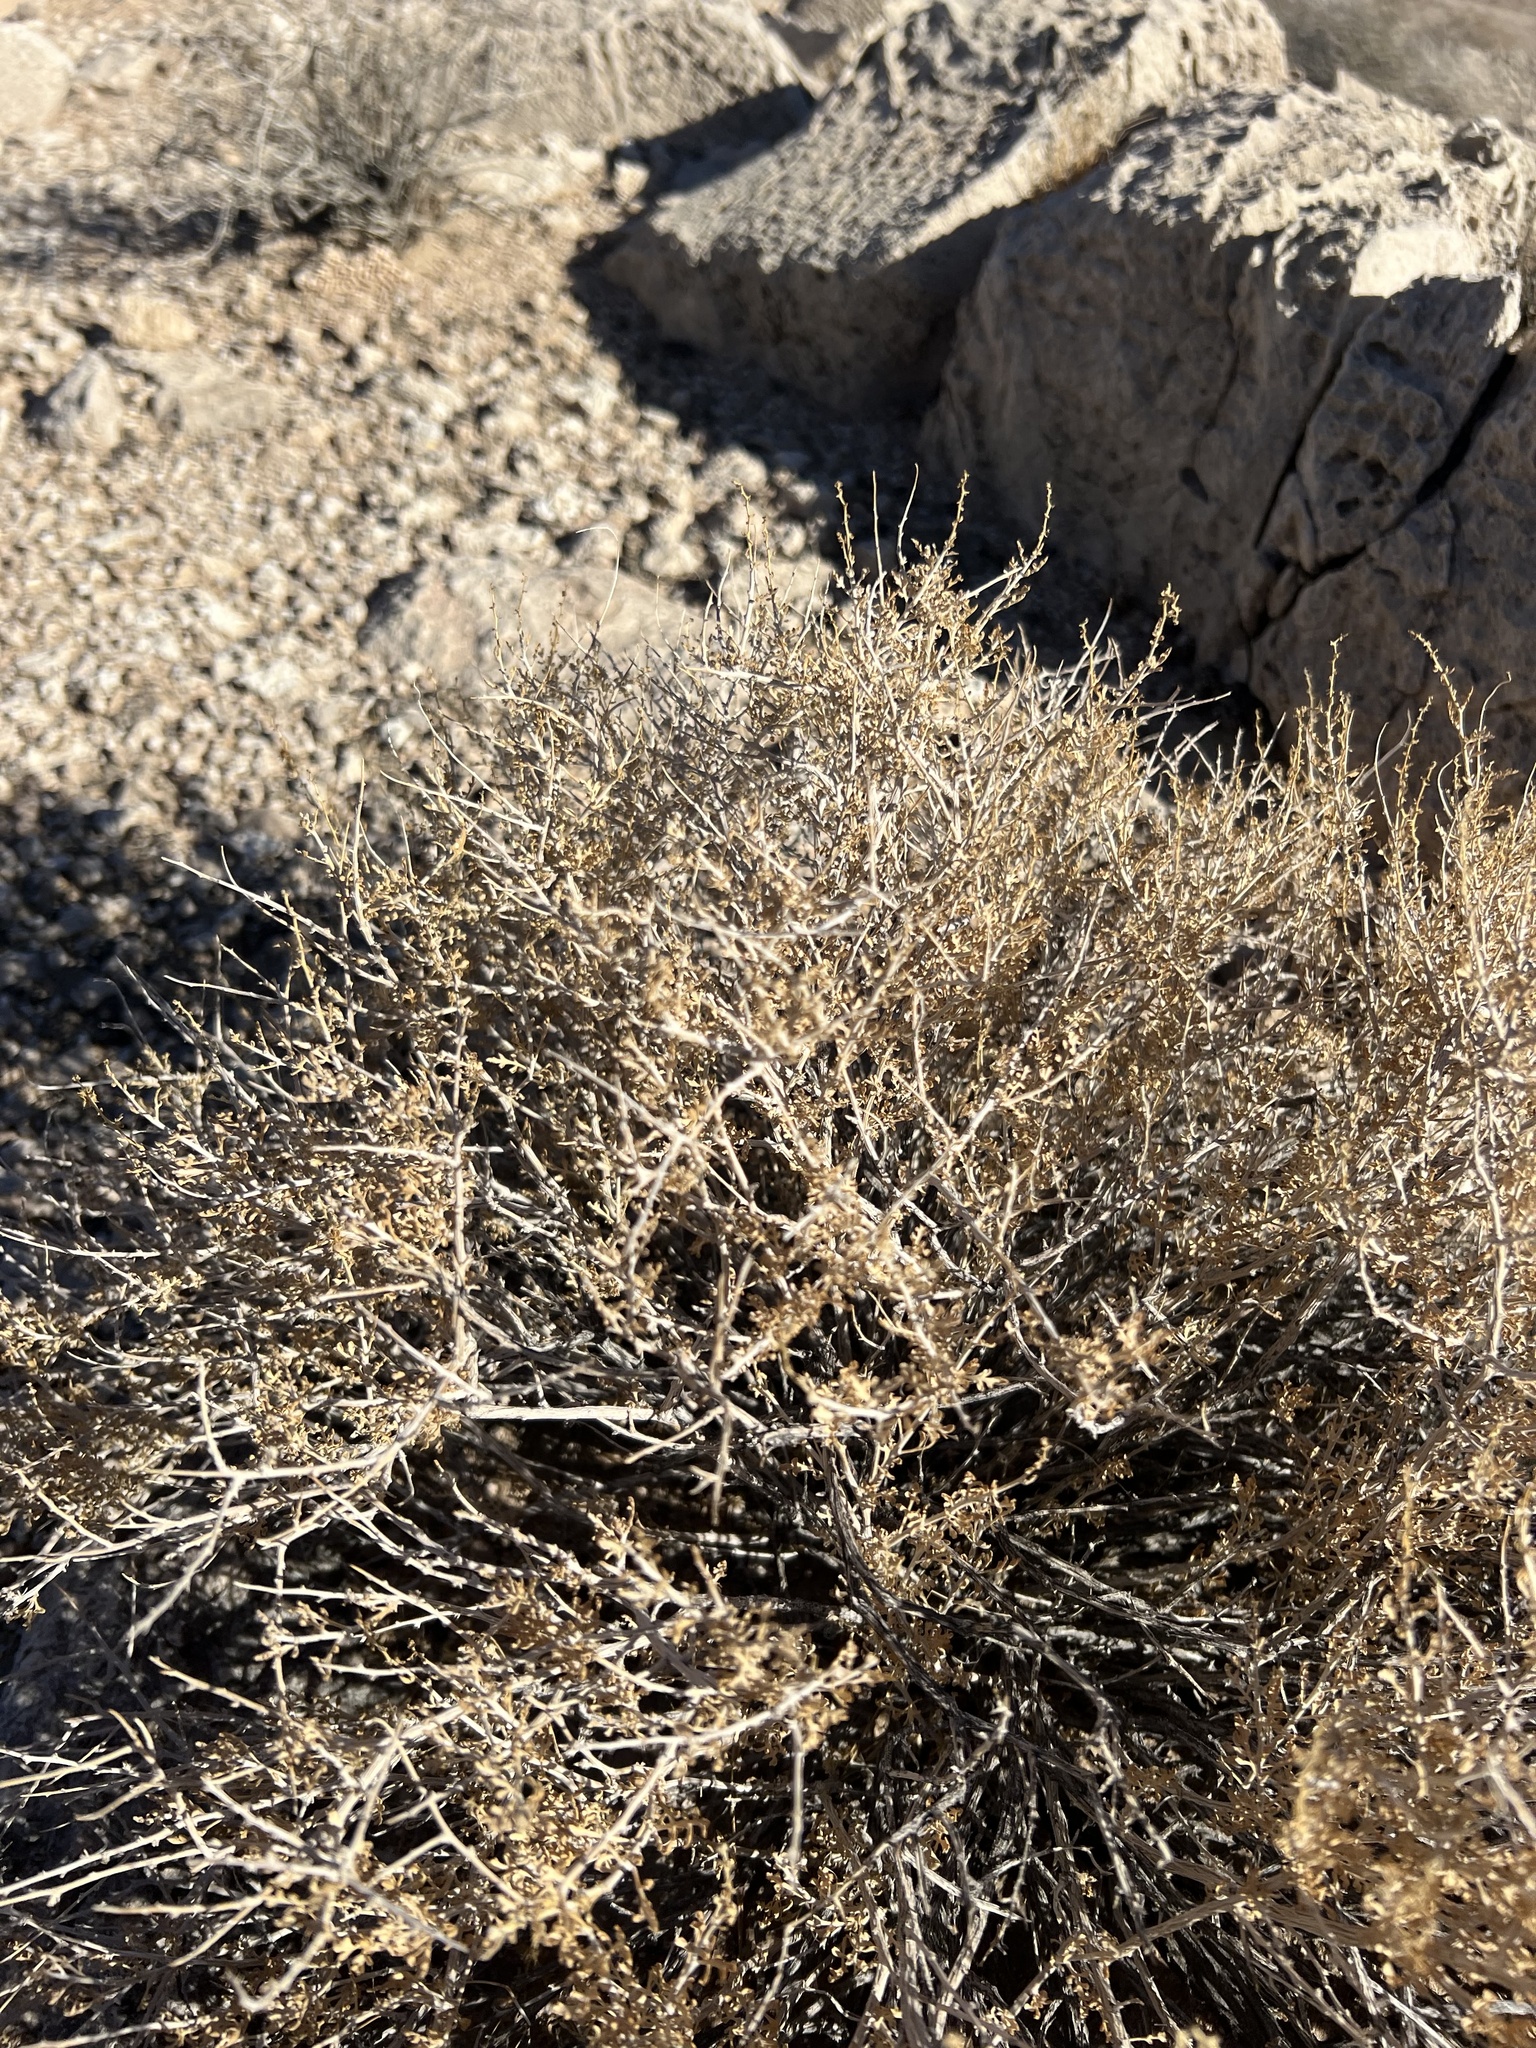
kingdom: Plantae
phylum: Tracheophyta
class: Magnoliopsida
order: Asterales
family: Asteraceae
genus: Ambrosia
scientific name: Ambrosia dumosa
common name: Bur-sage
